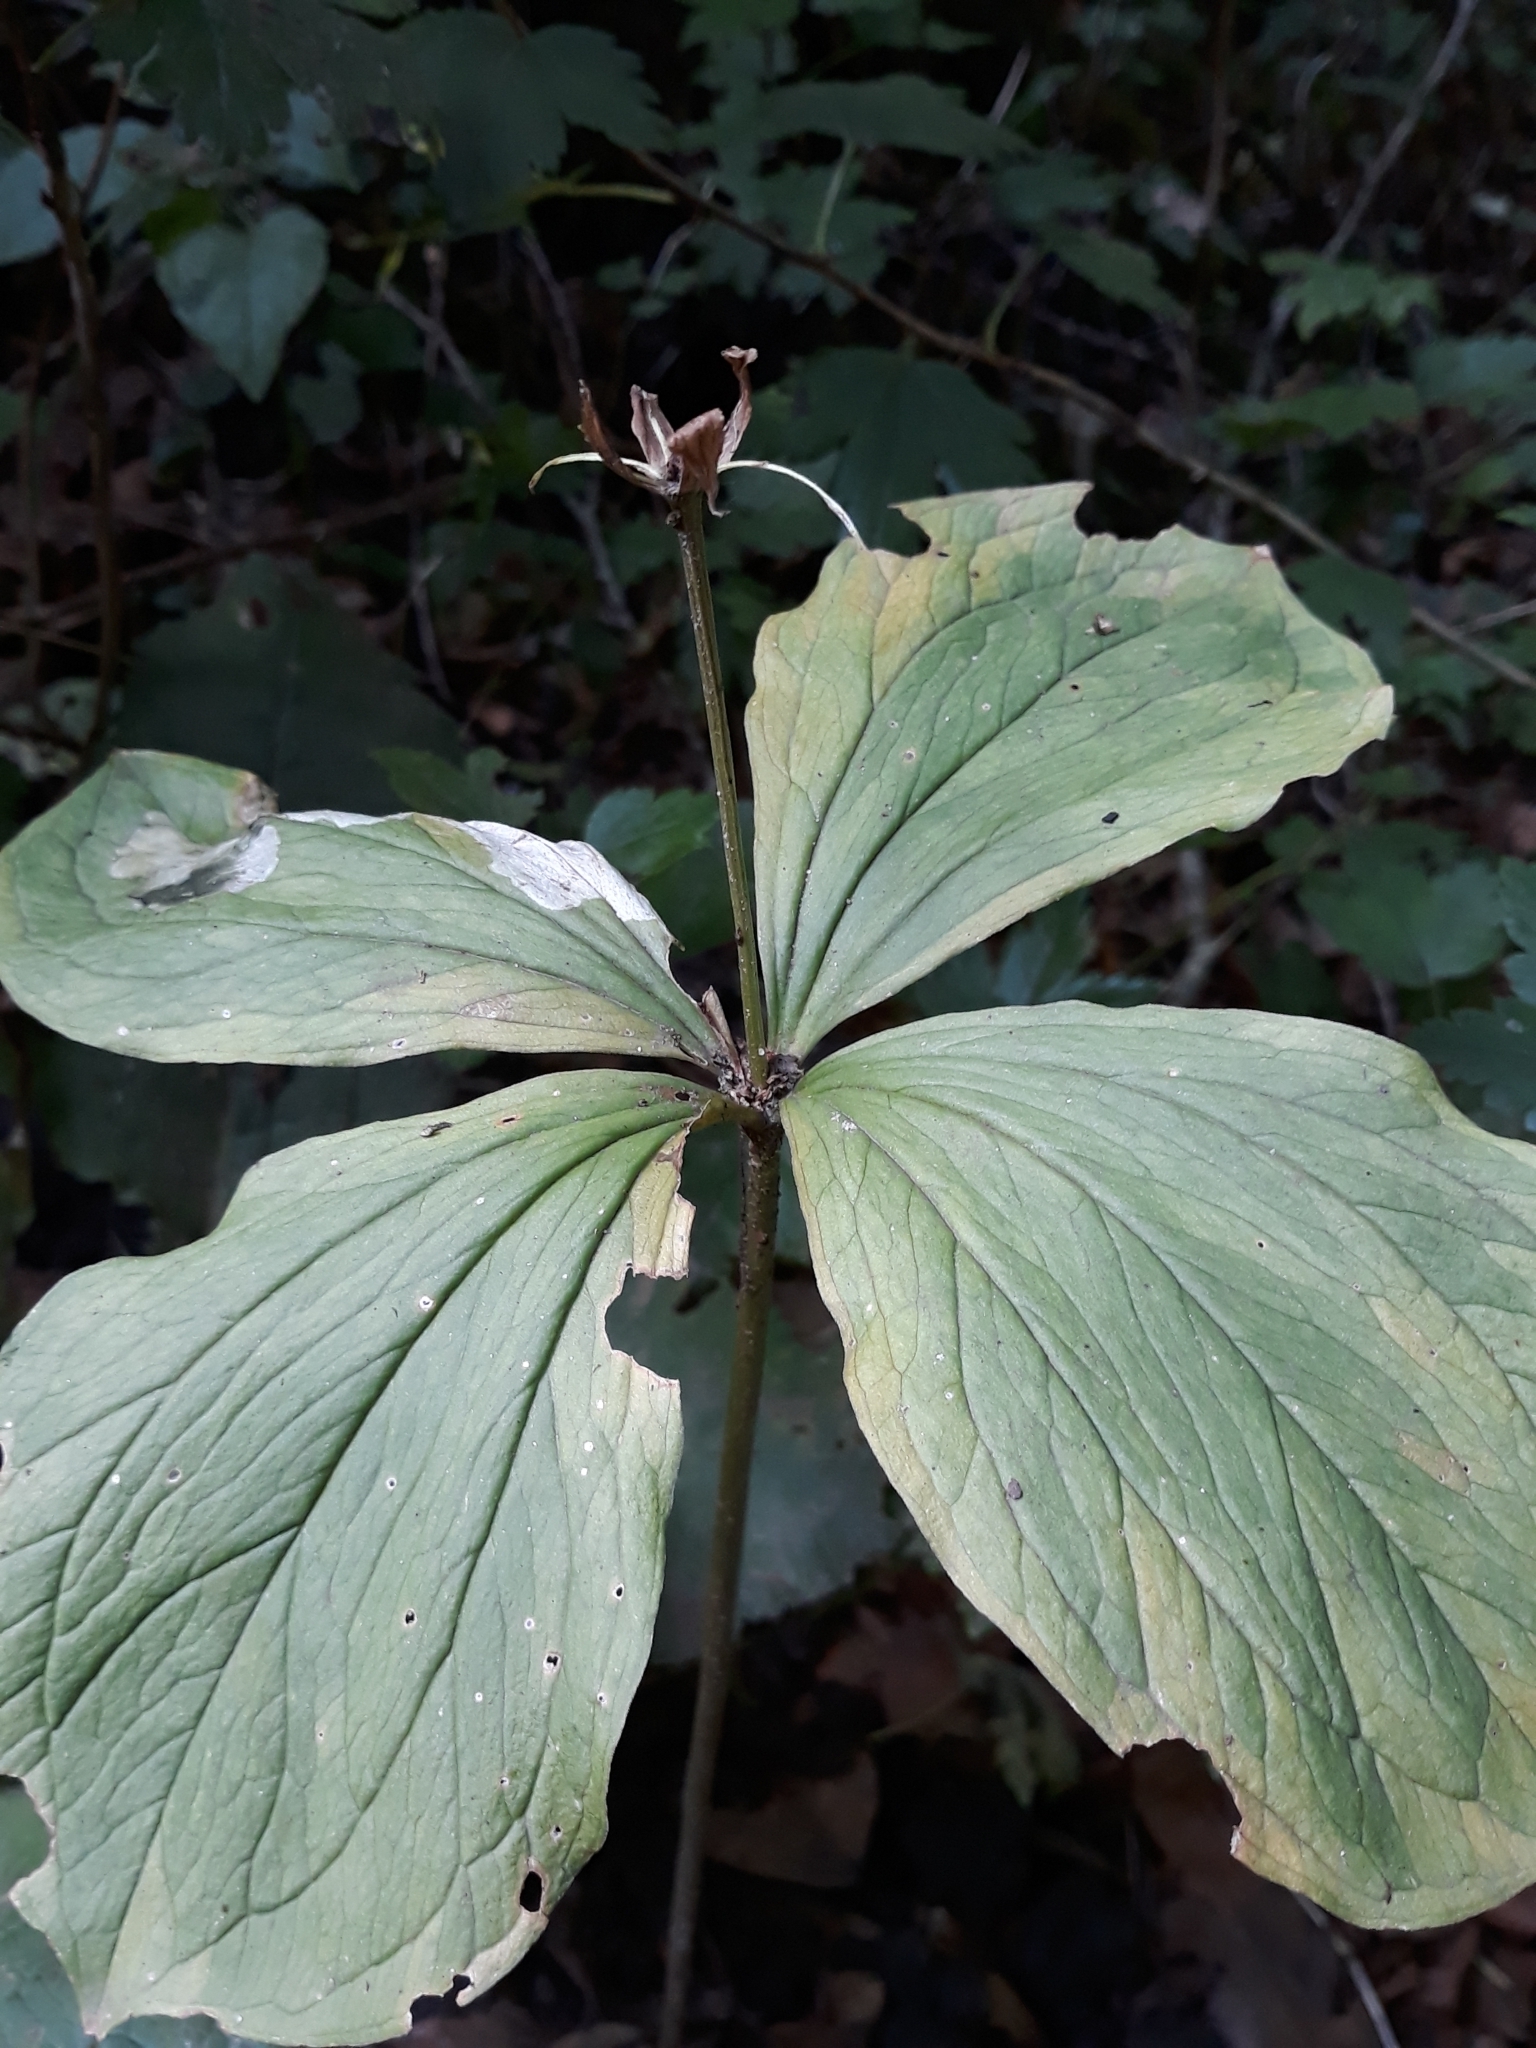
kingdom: Plantae
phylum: Tracheophyta
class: Liliopsida
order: Liliales
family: Melanthiaceae
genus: Paris
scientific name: Paris quadrifolia
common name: Herb-paris
